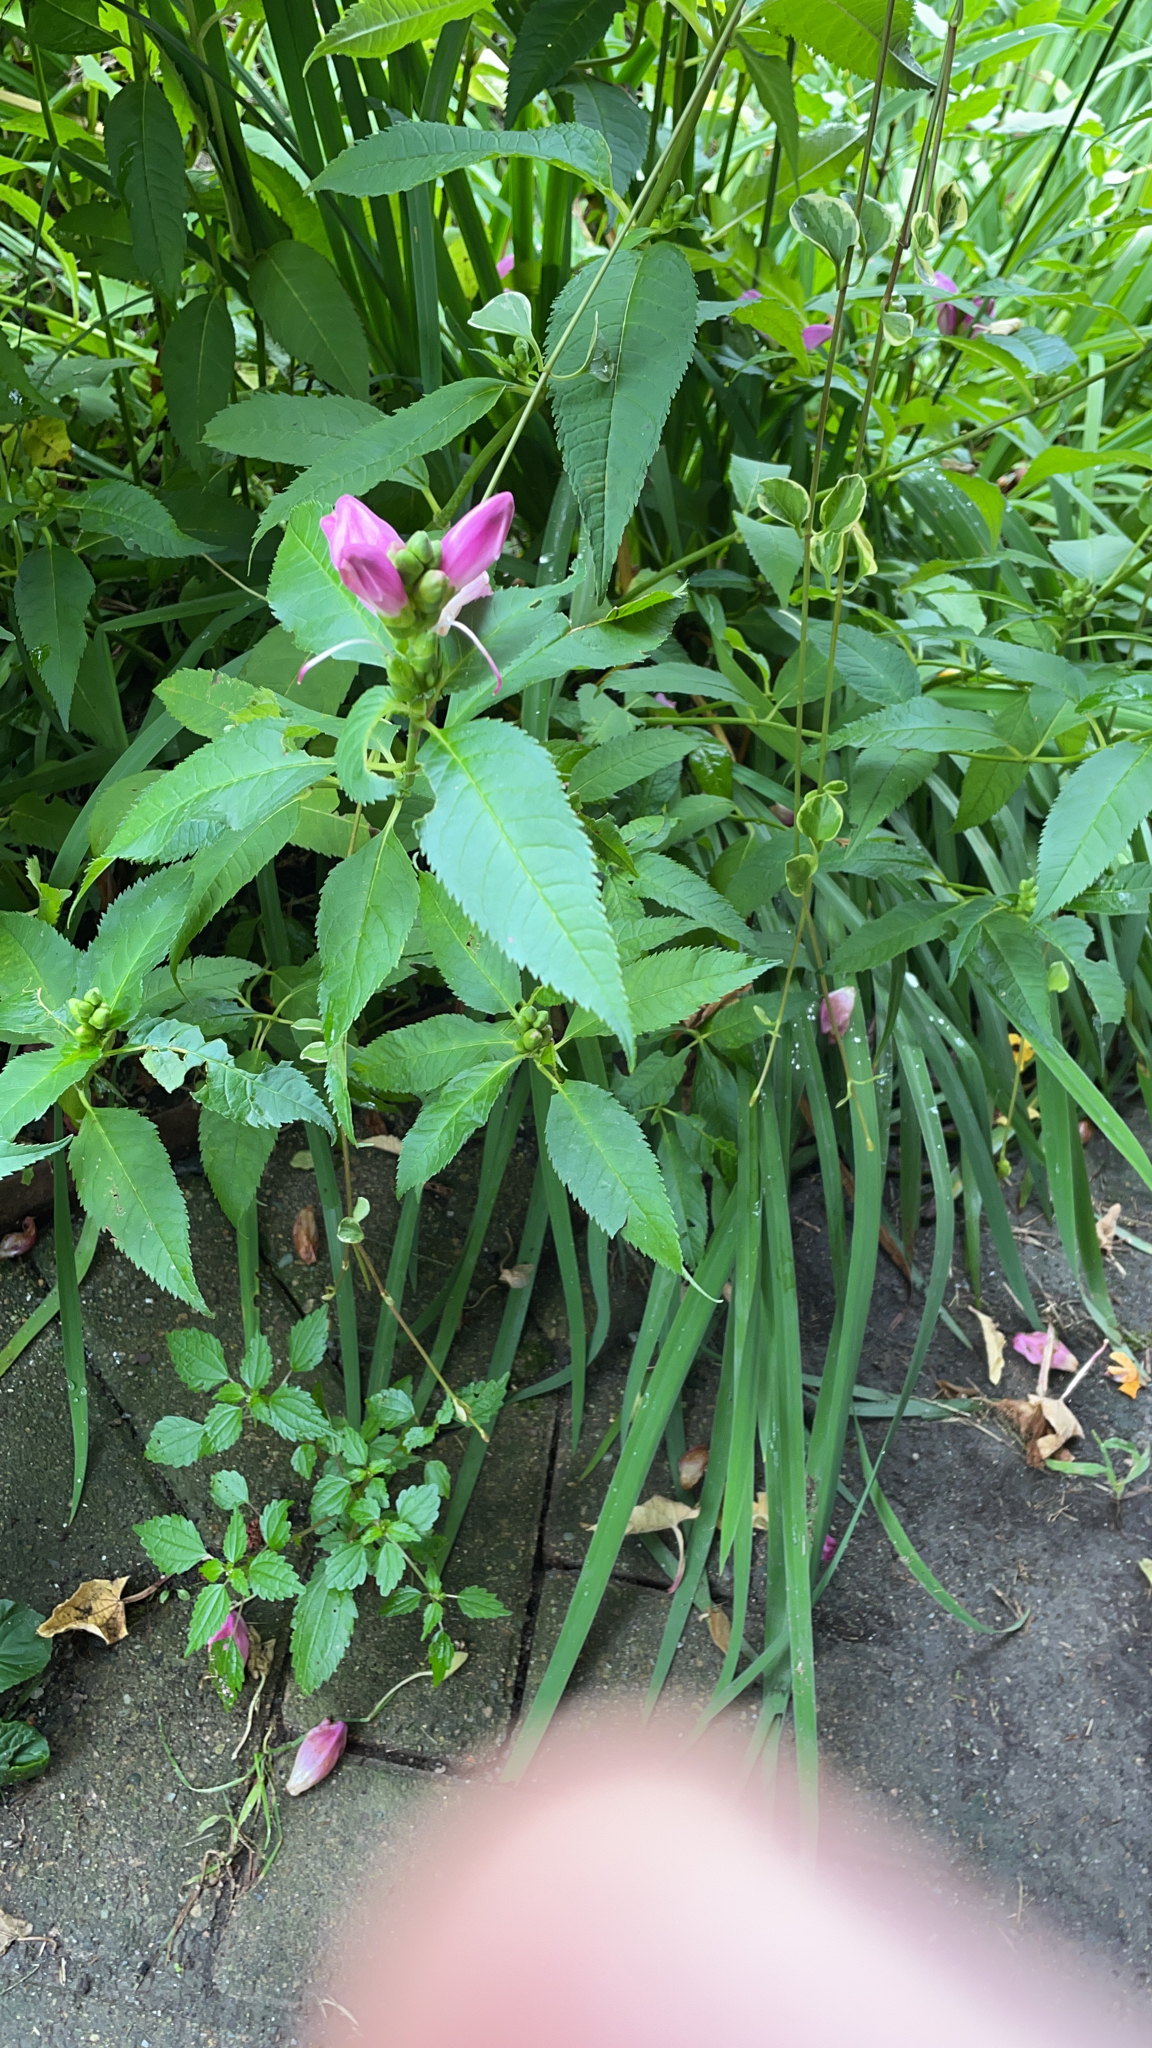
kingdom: Plantae
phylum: Tracheophyta
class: Magnoliopsida
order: Lamiales
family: Plantaginaceae
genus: Chelone
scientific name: Chelone lyonii
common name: Pink turtlehead
